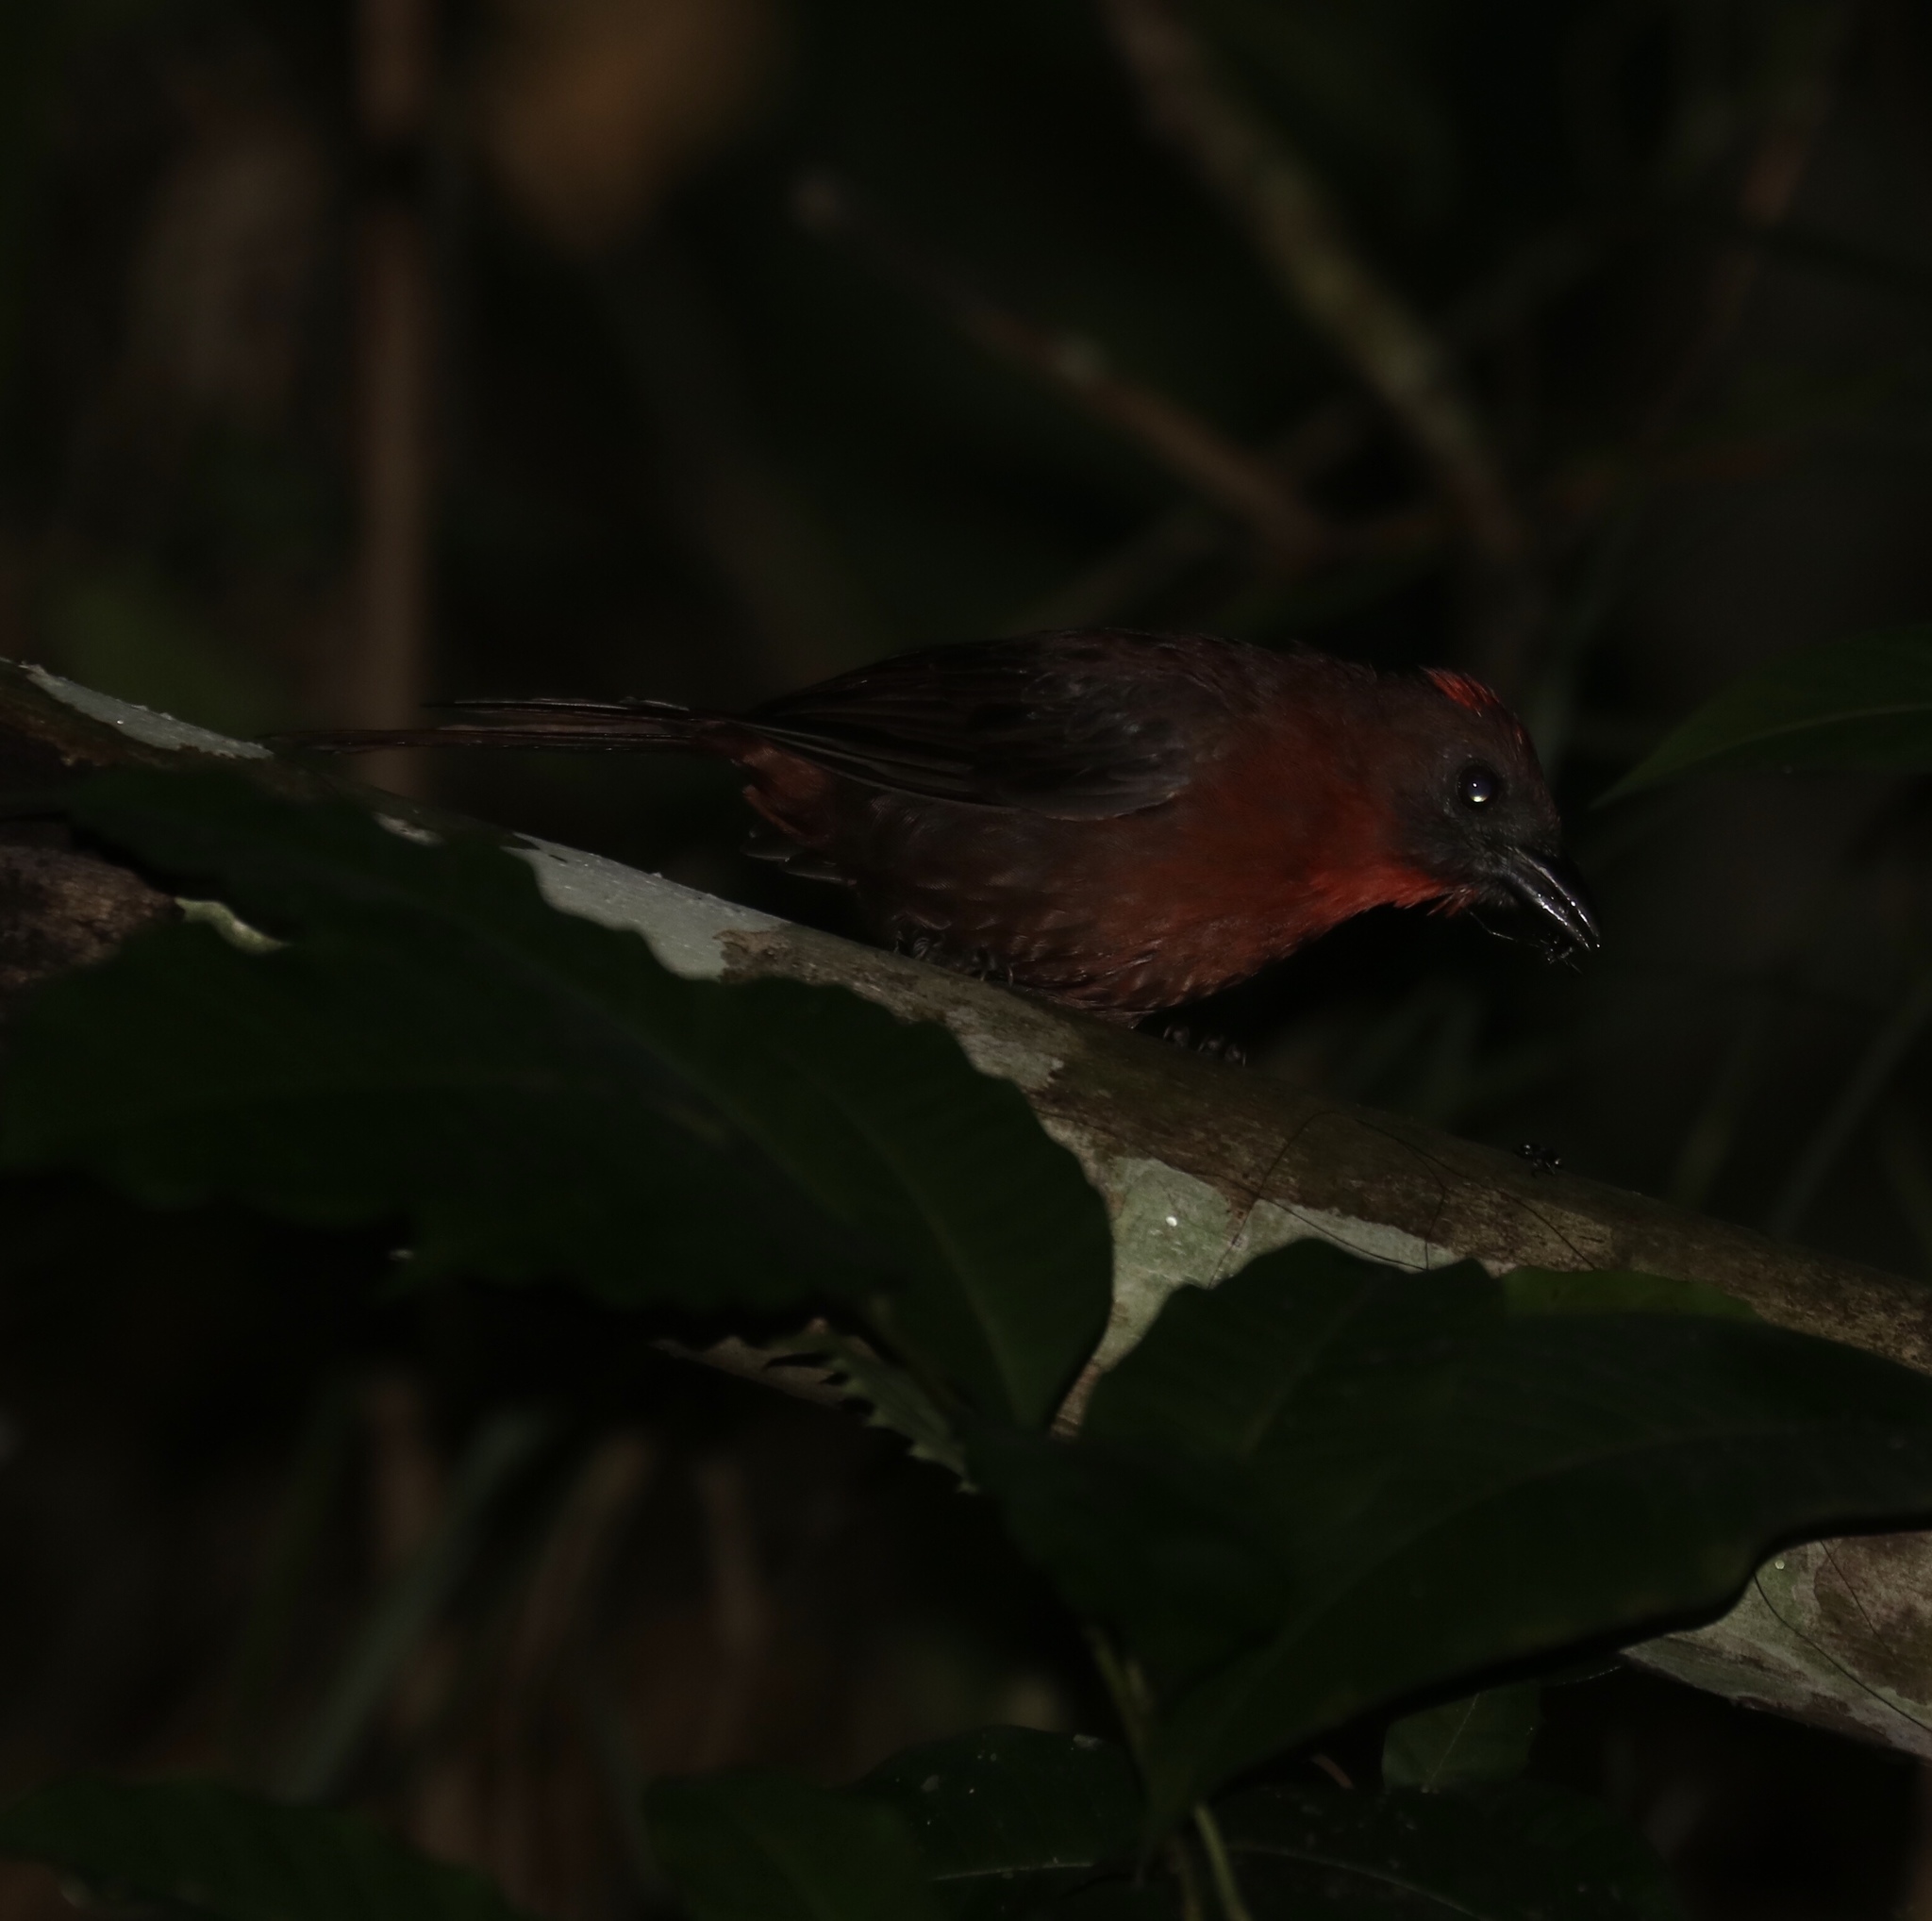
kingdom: Animalia
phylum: Chordata
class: Aves
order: Passeriformes
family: Cardinalidae
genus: Habia
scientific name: Habia fuscicauda
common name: Red-throated ant-tanager
